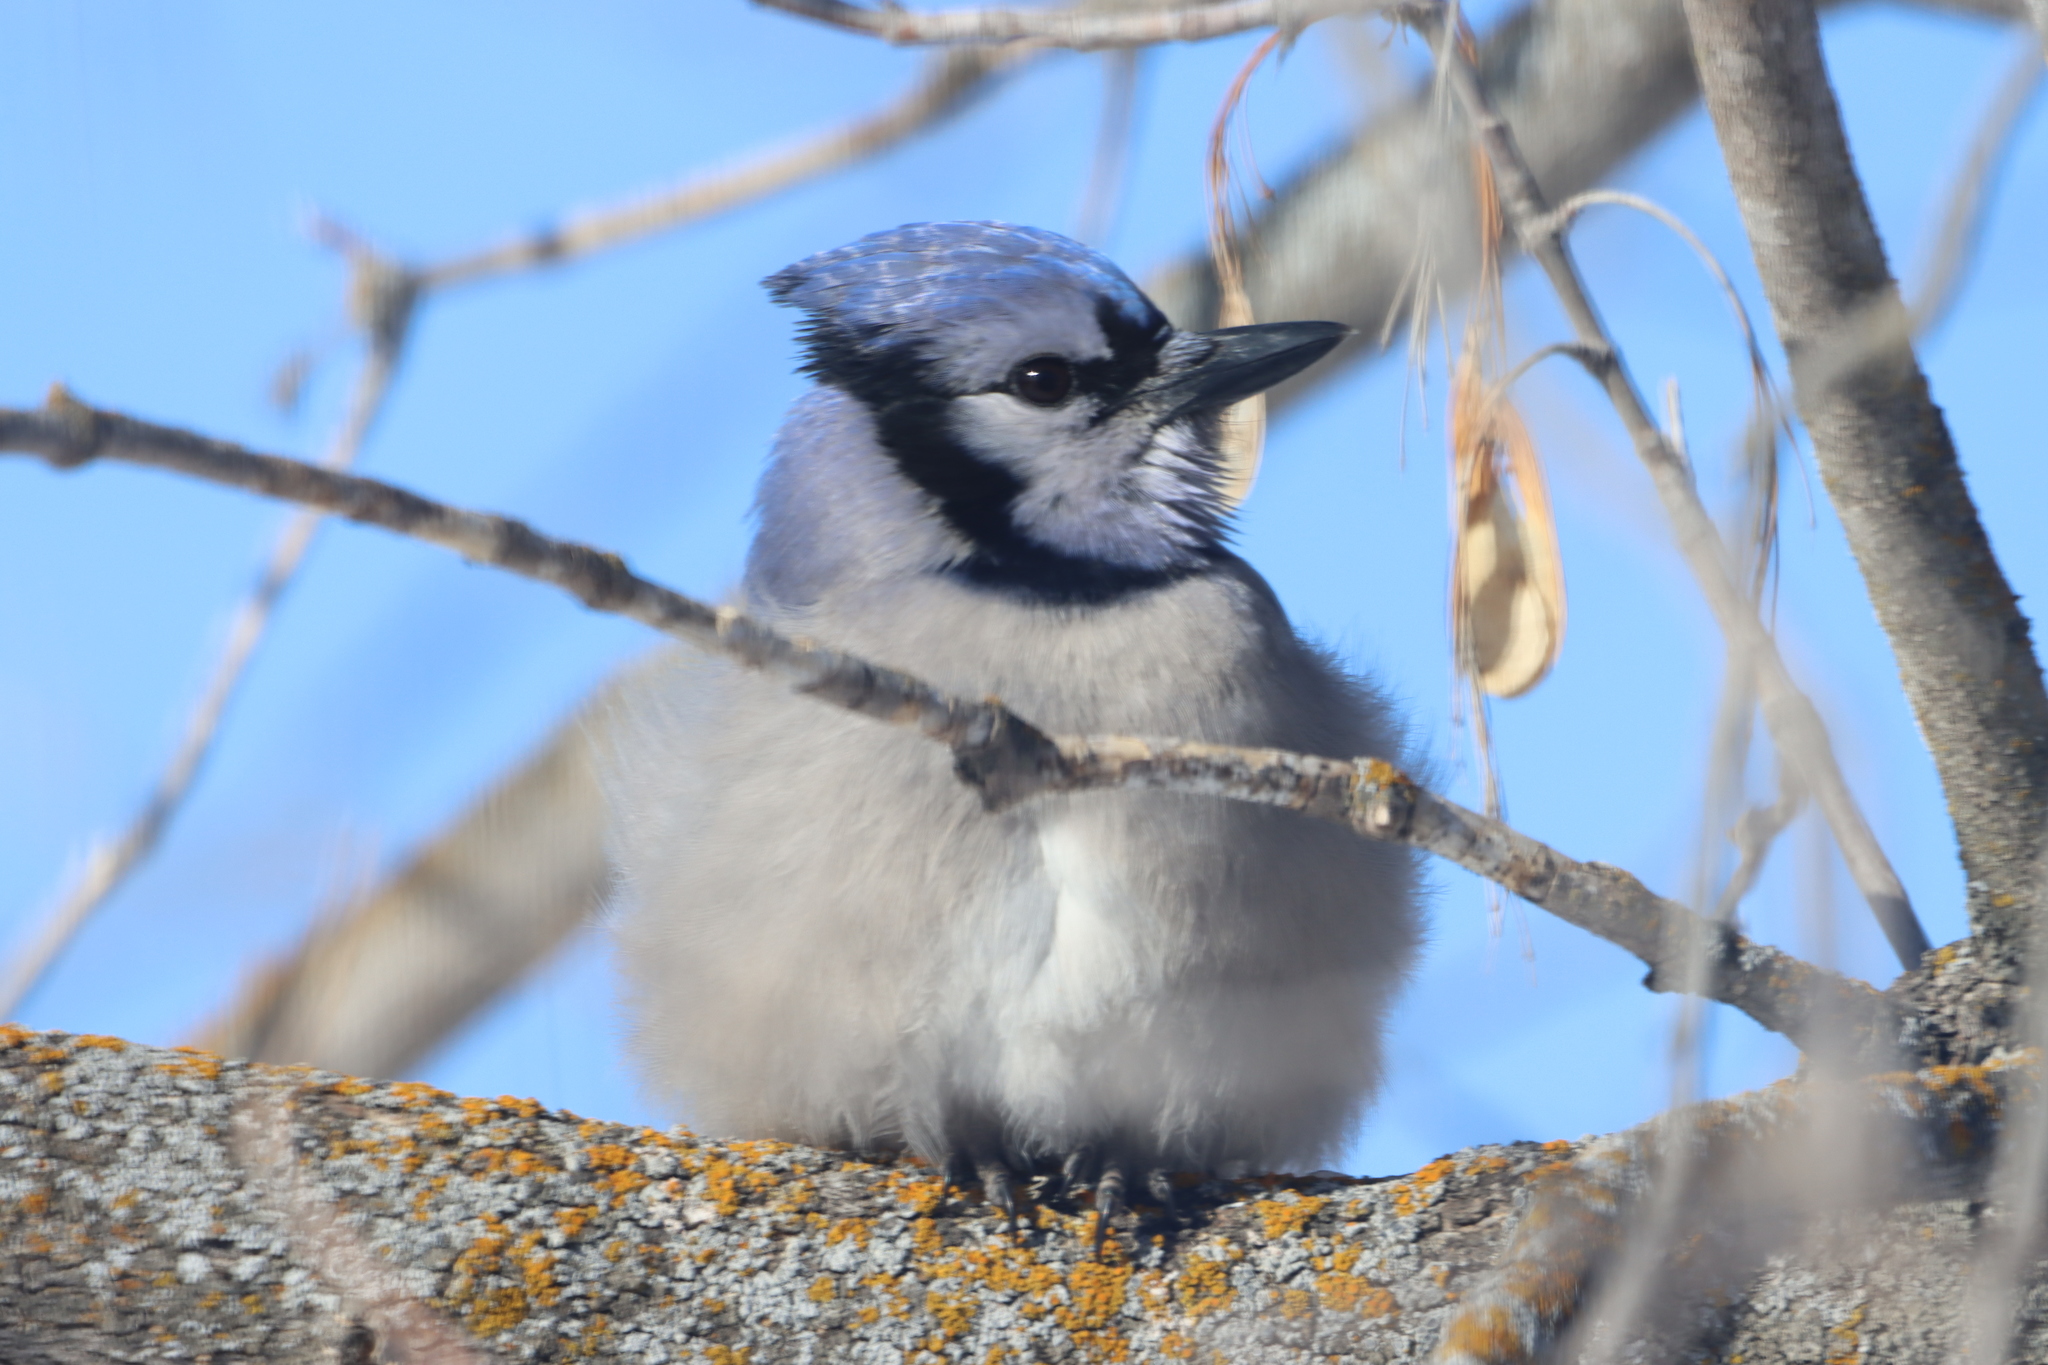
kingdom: Animalia
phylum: Chordata
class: Aves
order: Passeriformes
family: Corvidae
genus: Cyanocitta
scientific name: Cyanocitta cristata
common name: Blue jay
